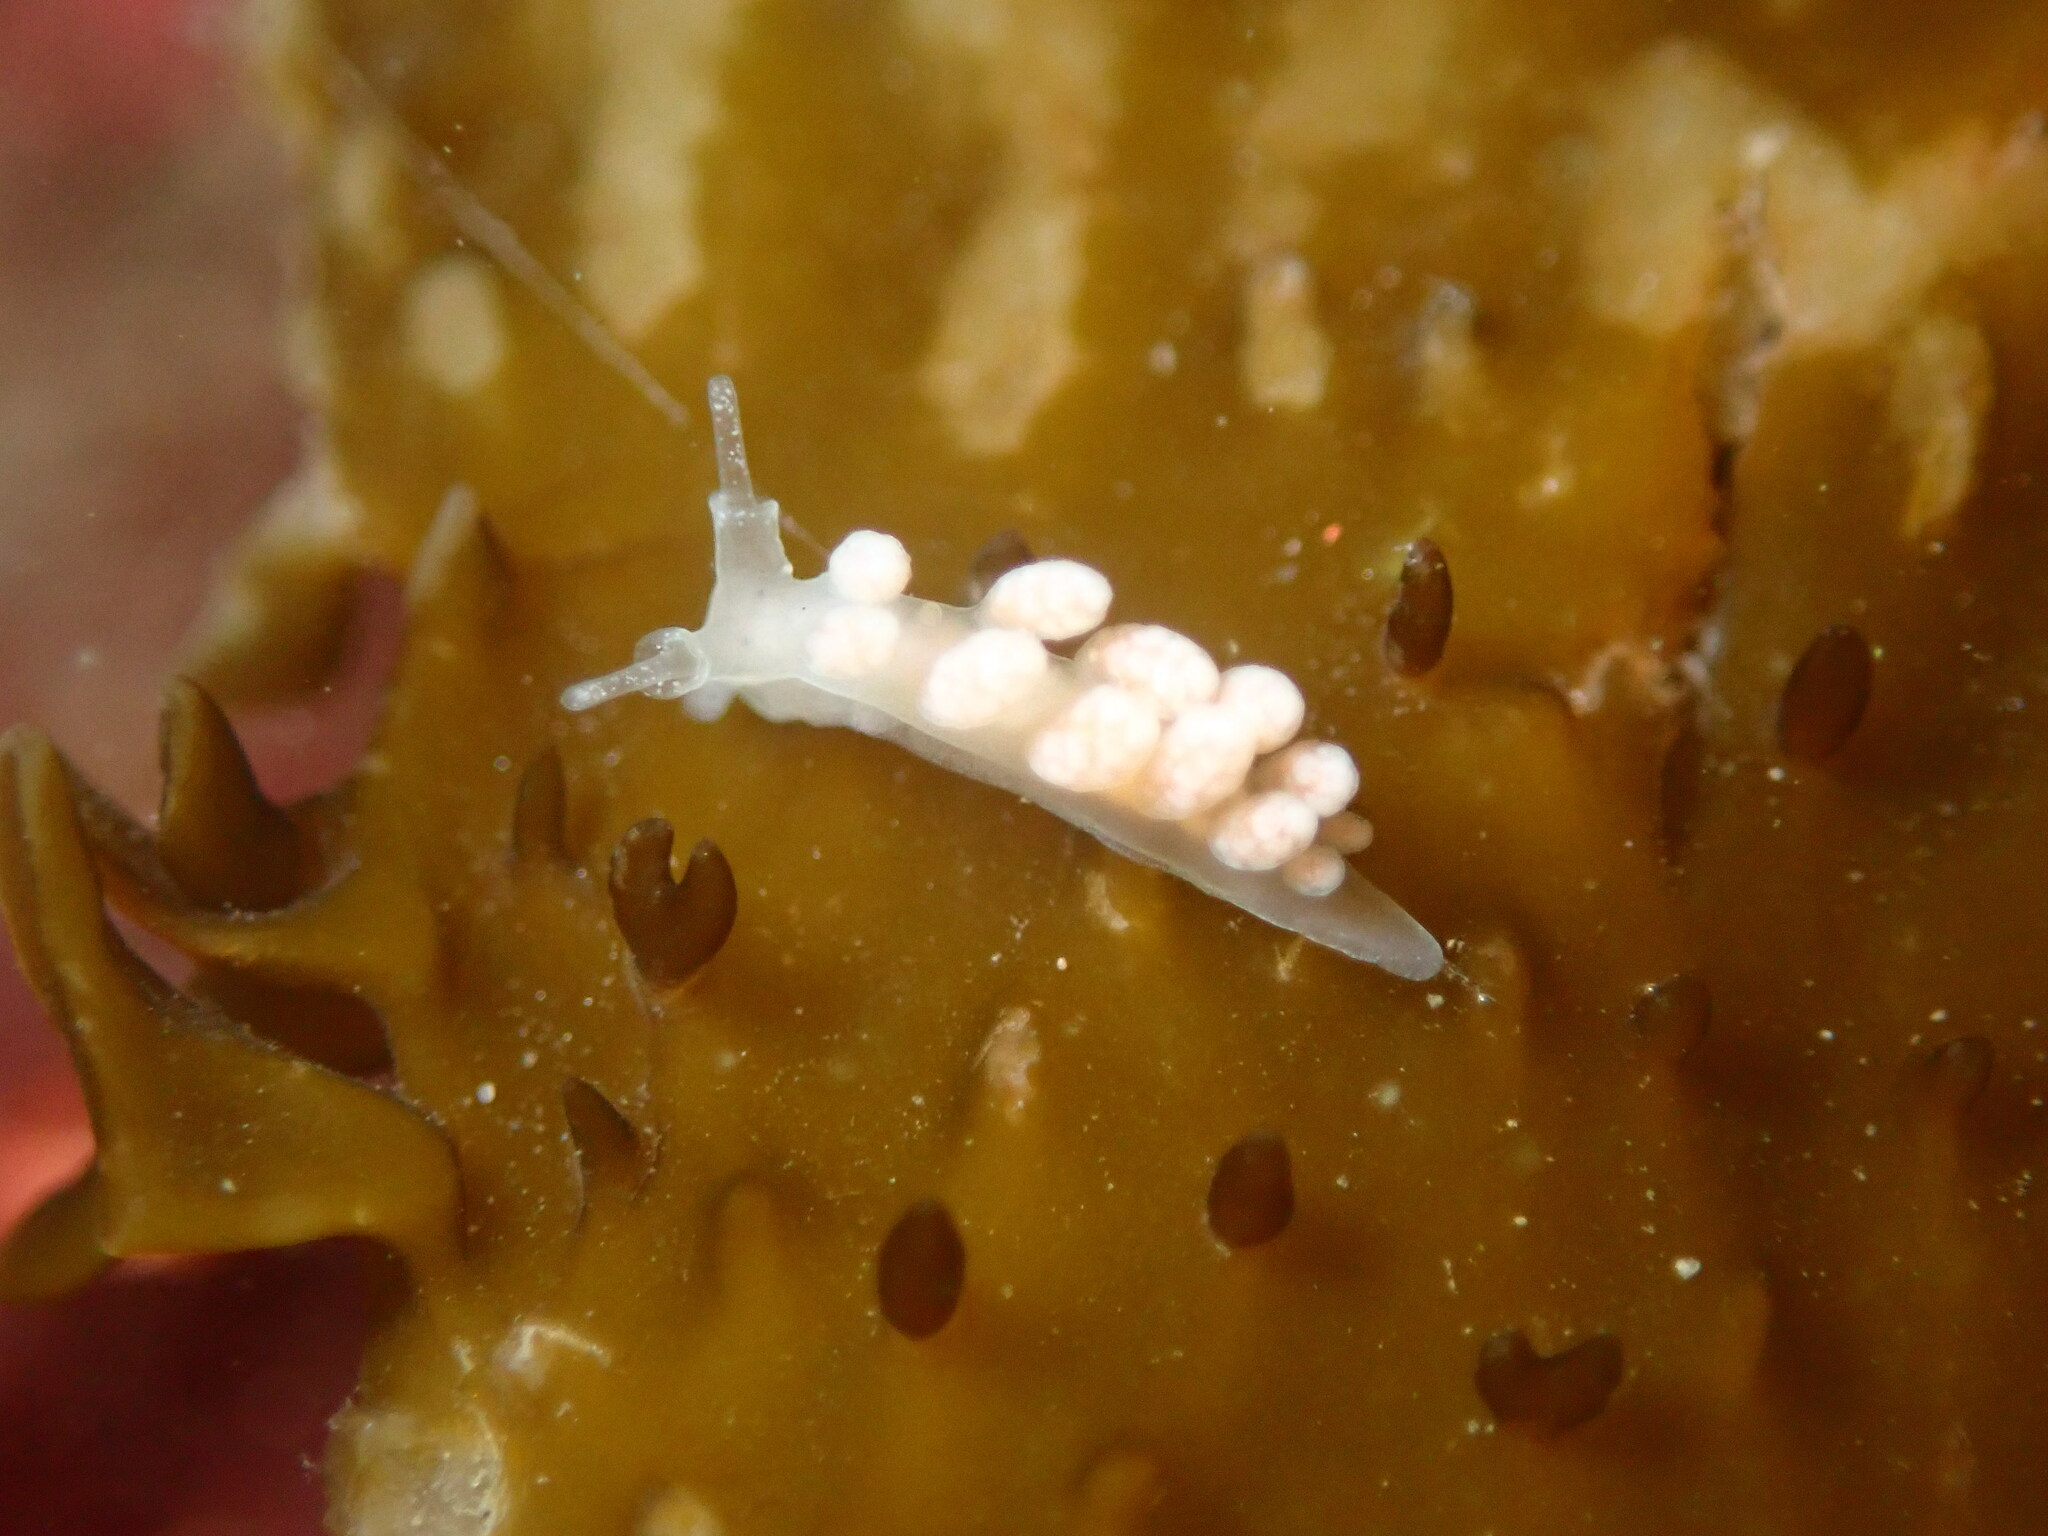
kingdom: Animalia
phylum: Mollusca
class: Gastropoda
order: Nudibranchia
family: Dotidae
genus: Doto
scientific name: Doto amyra
